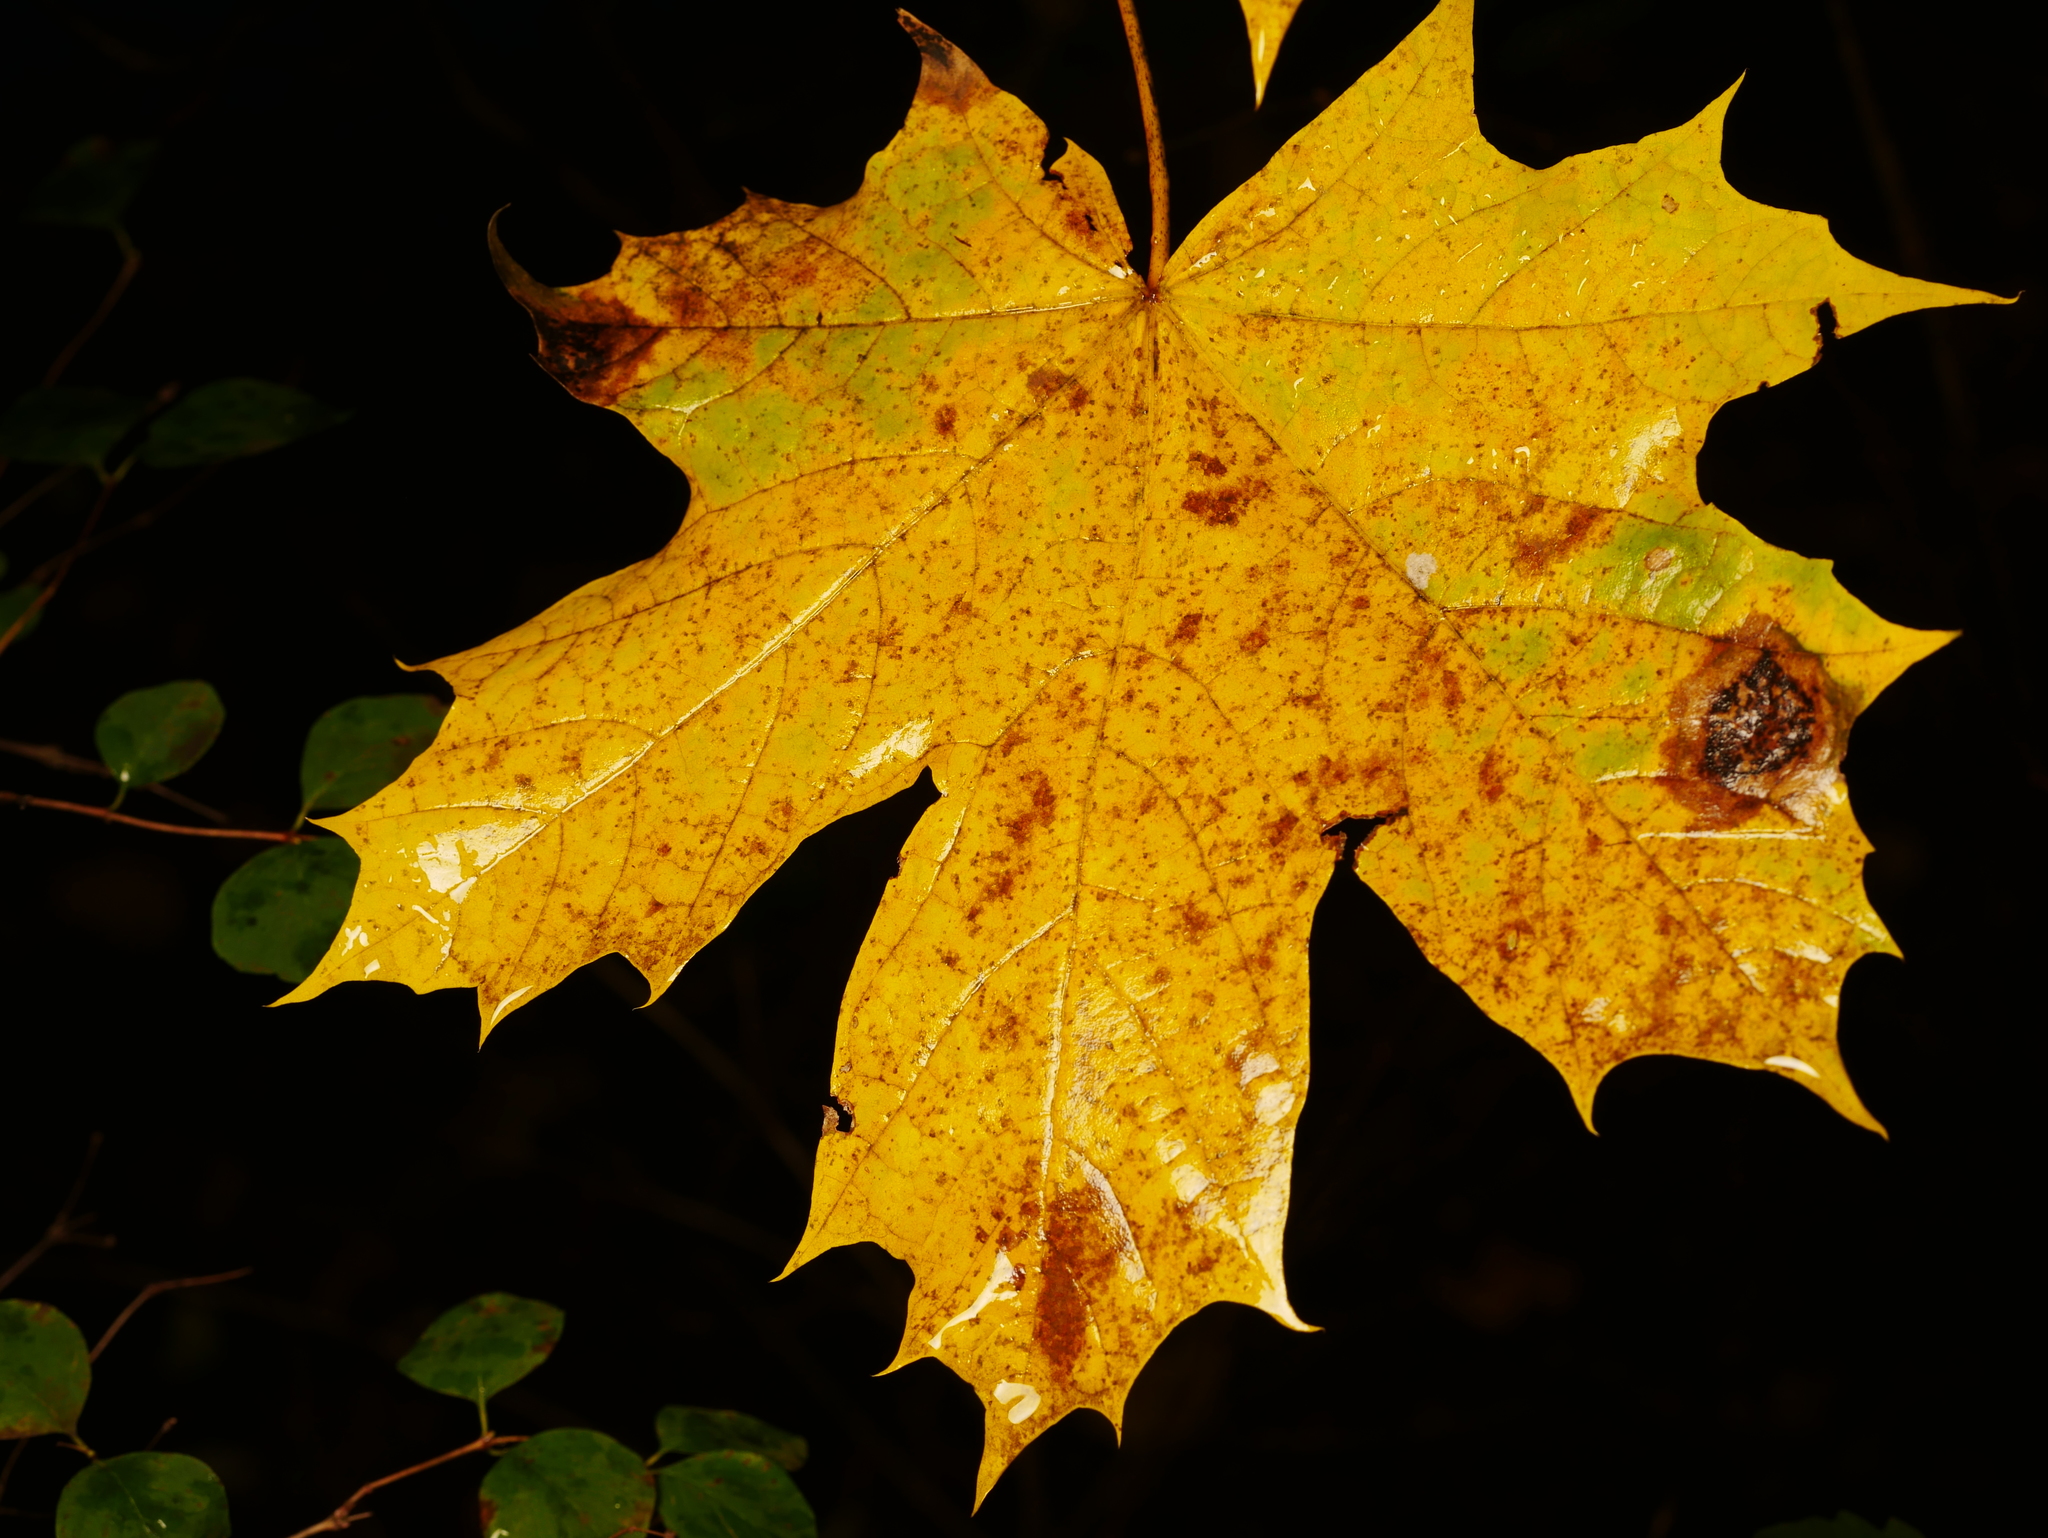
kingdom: Plantae
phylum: Tracheophyta
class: Magnoliopsida
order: Sapindales
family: Sapindaceae
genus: Acer
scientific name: Acer platanoides
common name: Norway maple
